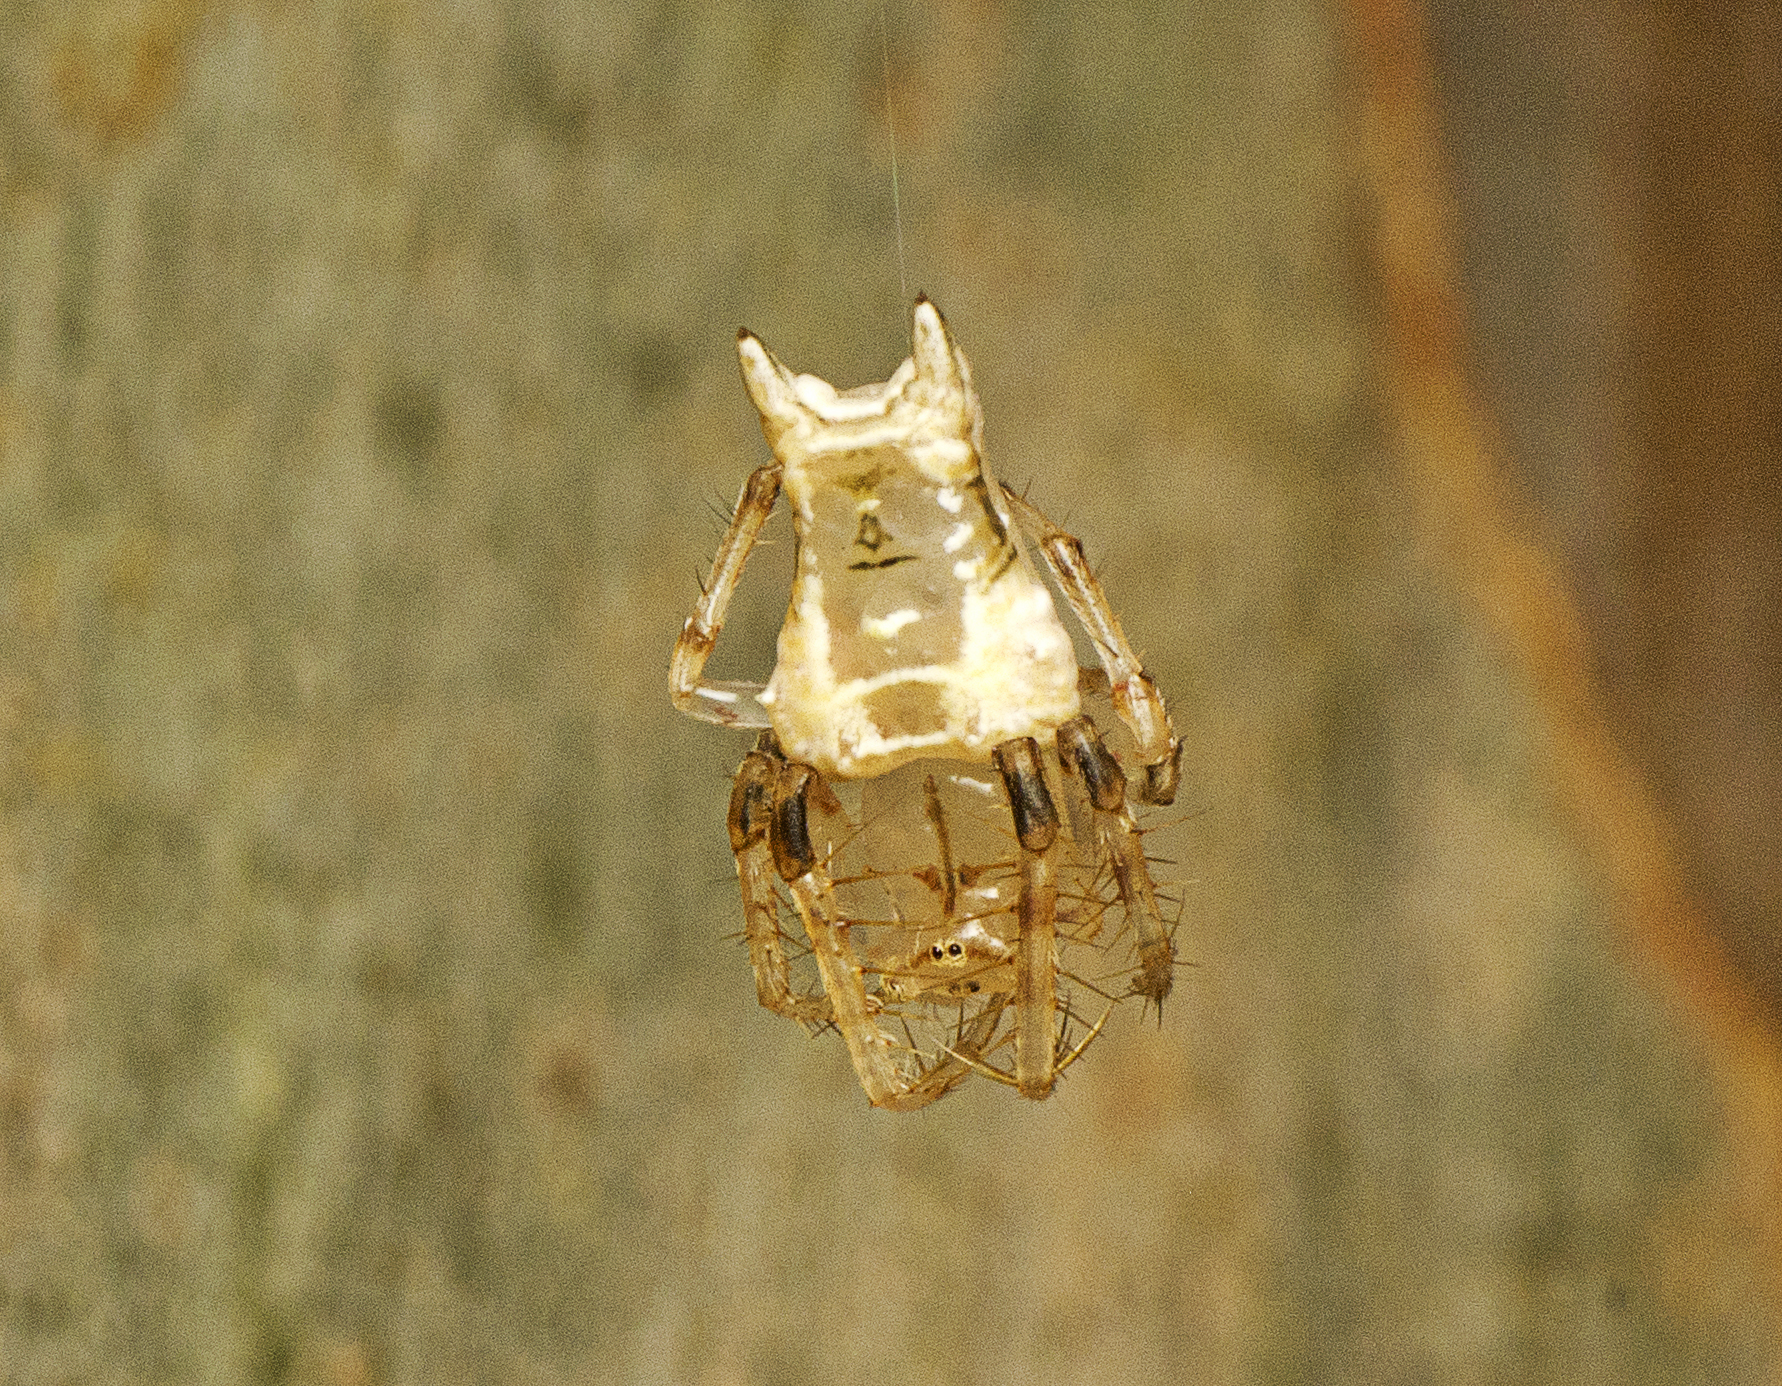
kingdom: Animalia
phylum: Arthropoda
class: Arachnida
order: Araneae
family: Arkyidae
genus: Arkys
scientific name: Arkys furcatus
